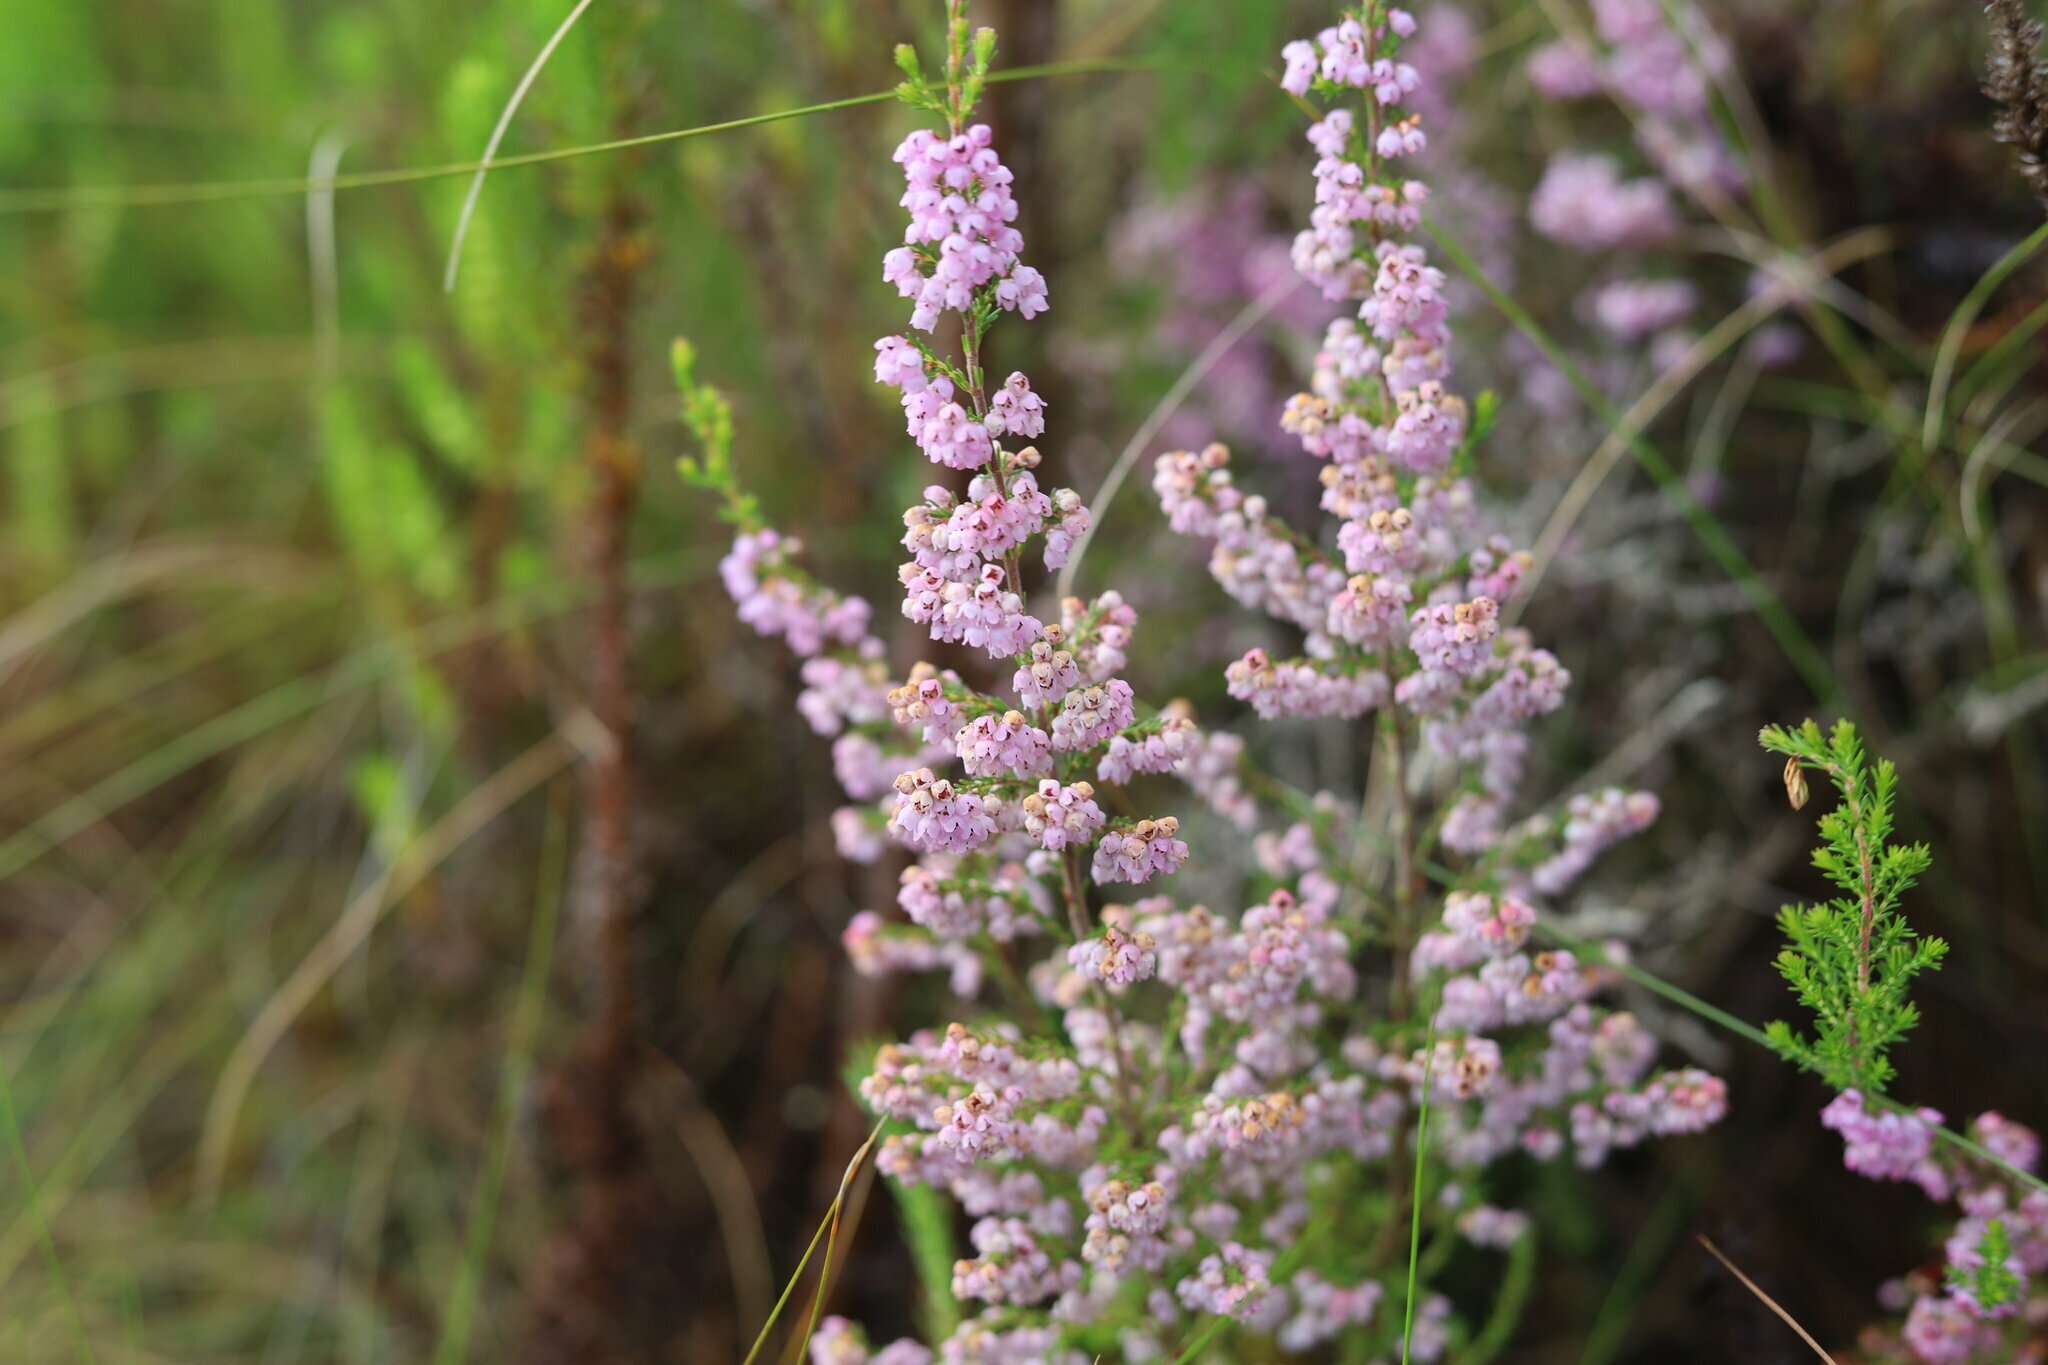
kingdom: Plantae
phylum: Tracheophyta
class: Magnoliopsida
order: Ericales
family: Ericaceae
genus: Erica
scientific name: Erica mauritanica
